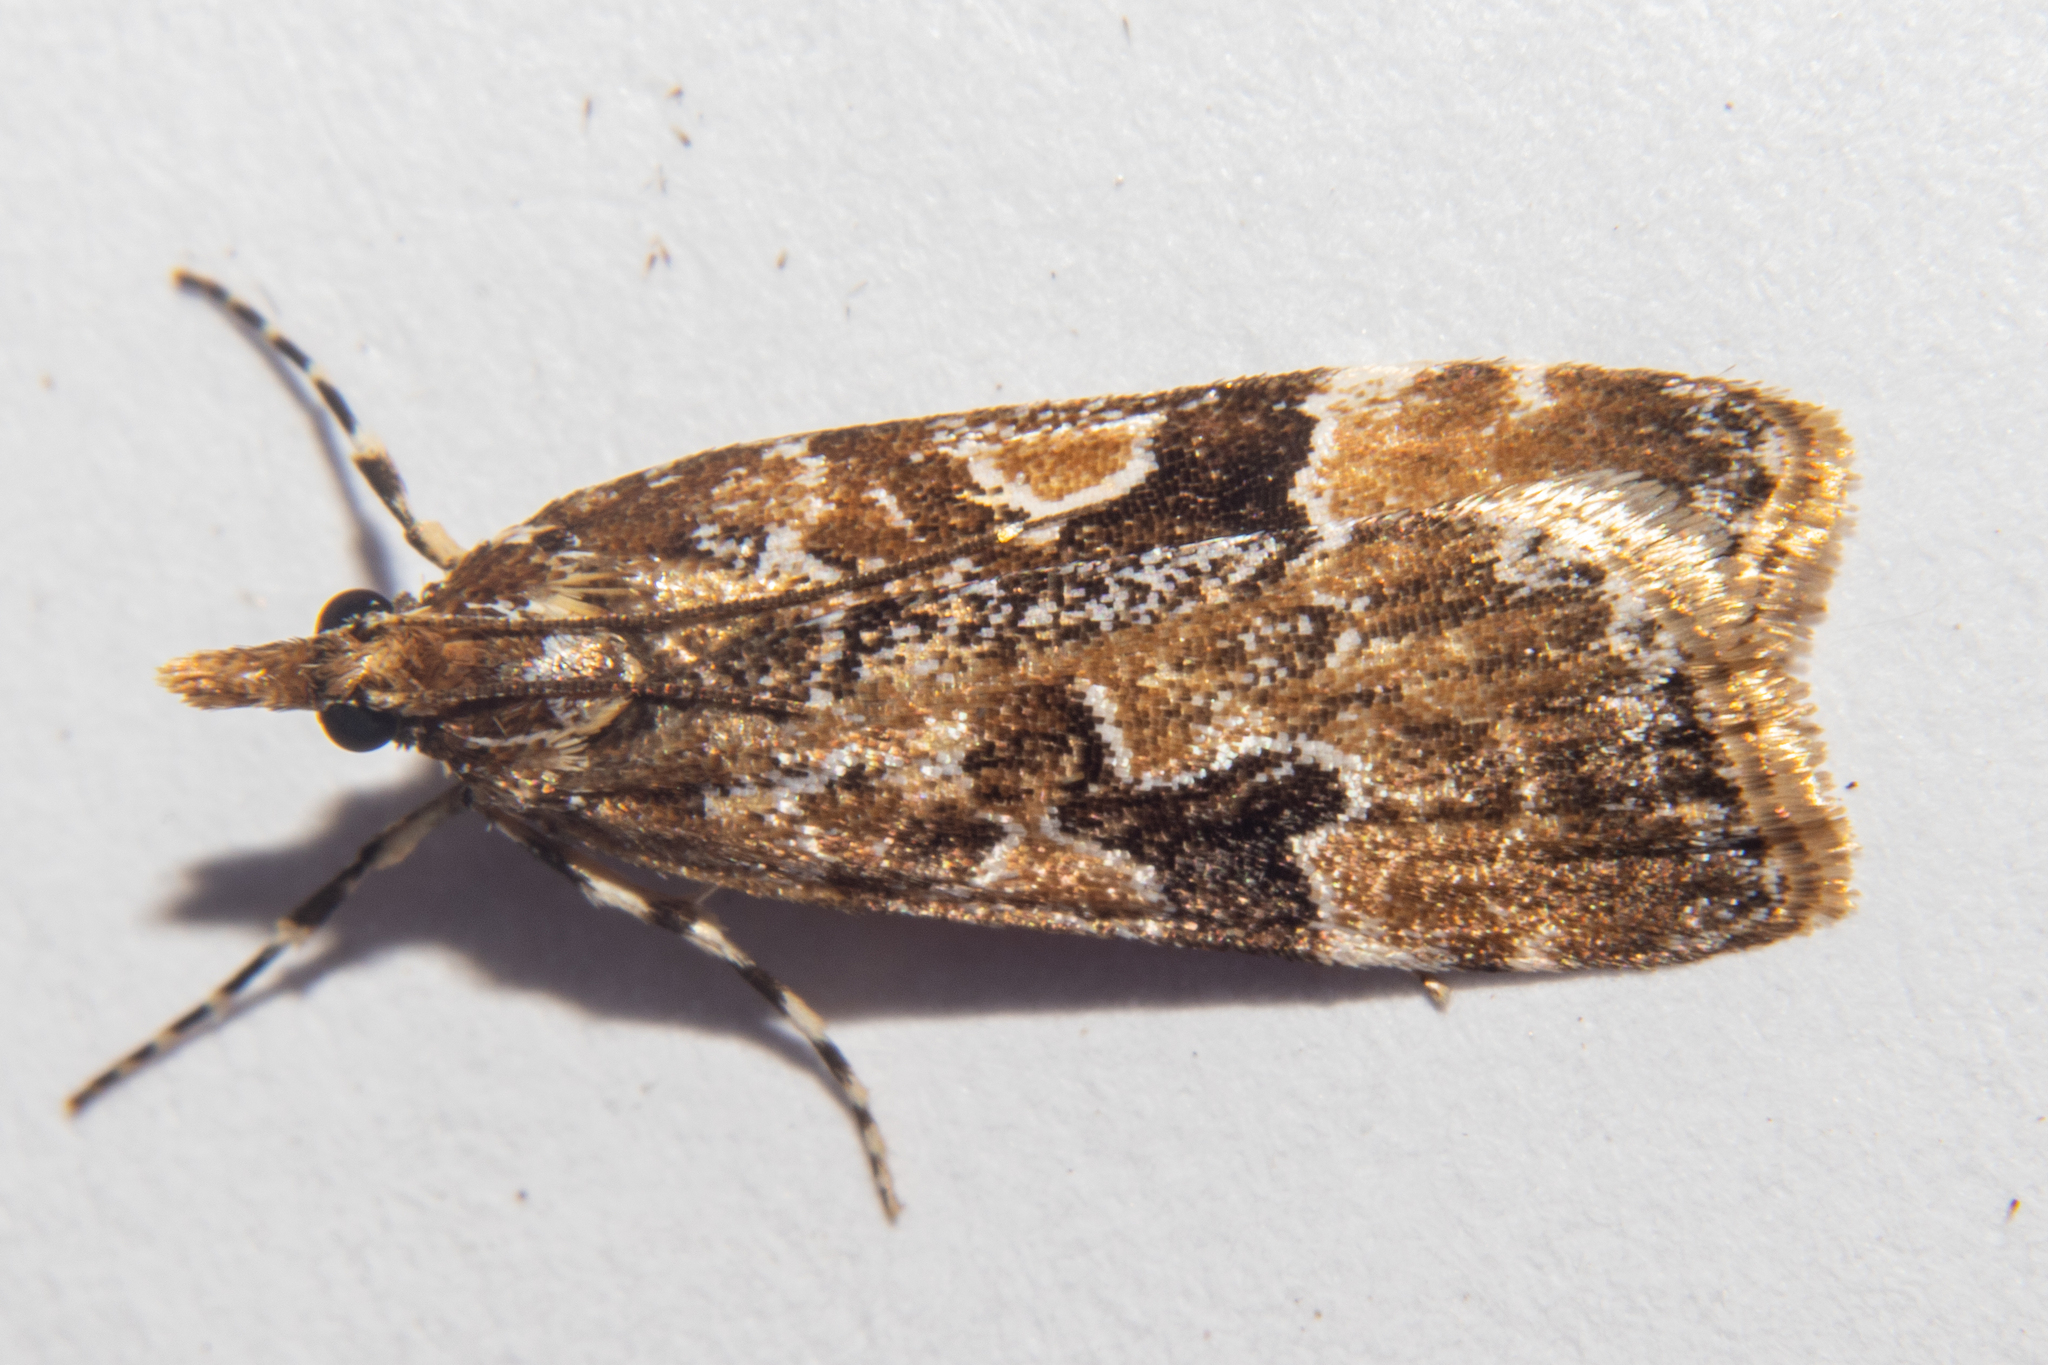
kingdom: Animalia
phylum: Arthropoda
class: Insecta
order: Lepidoptera
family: Crambidae
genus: Scoparia
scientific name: Scoparia ustimacula
